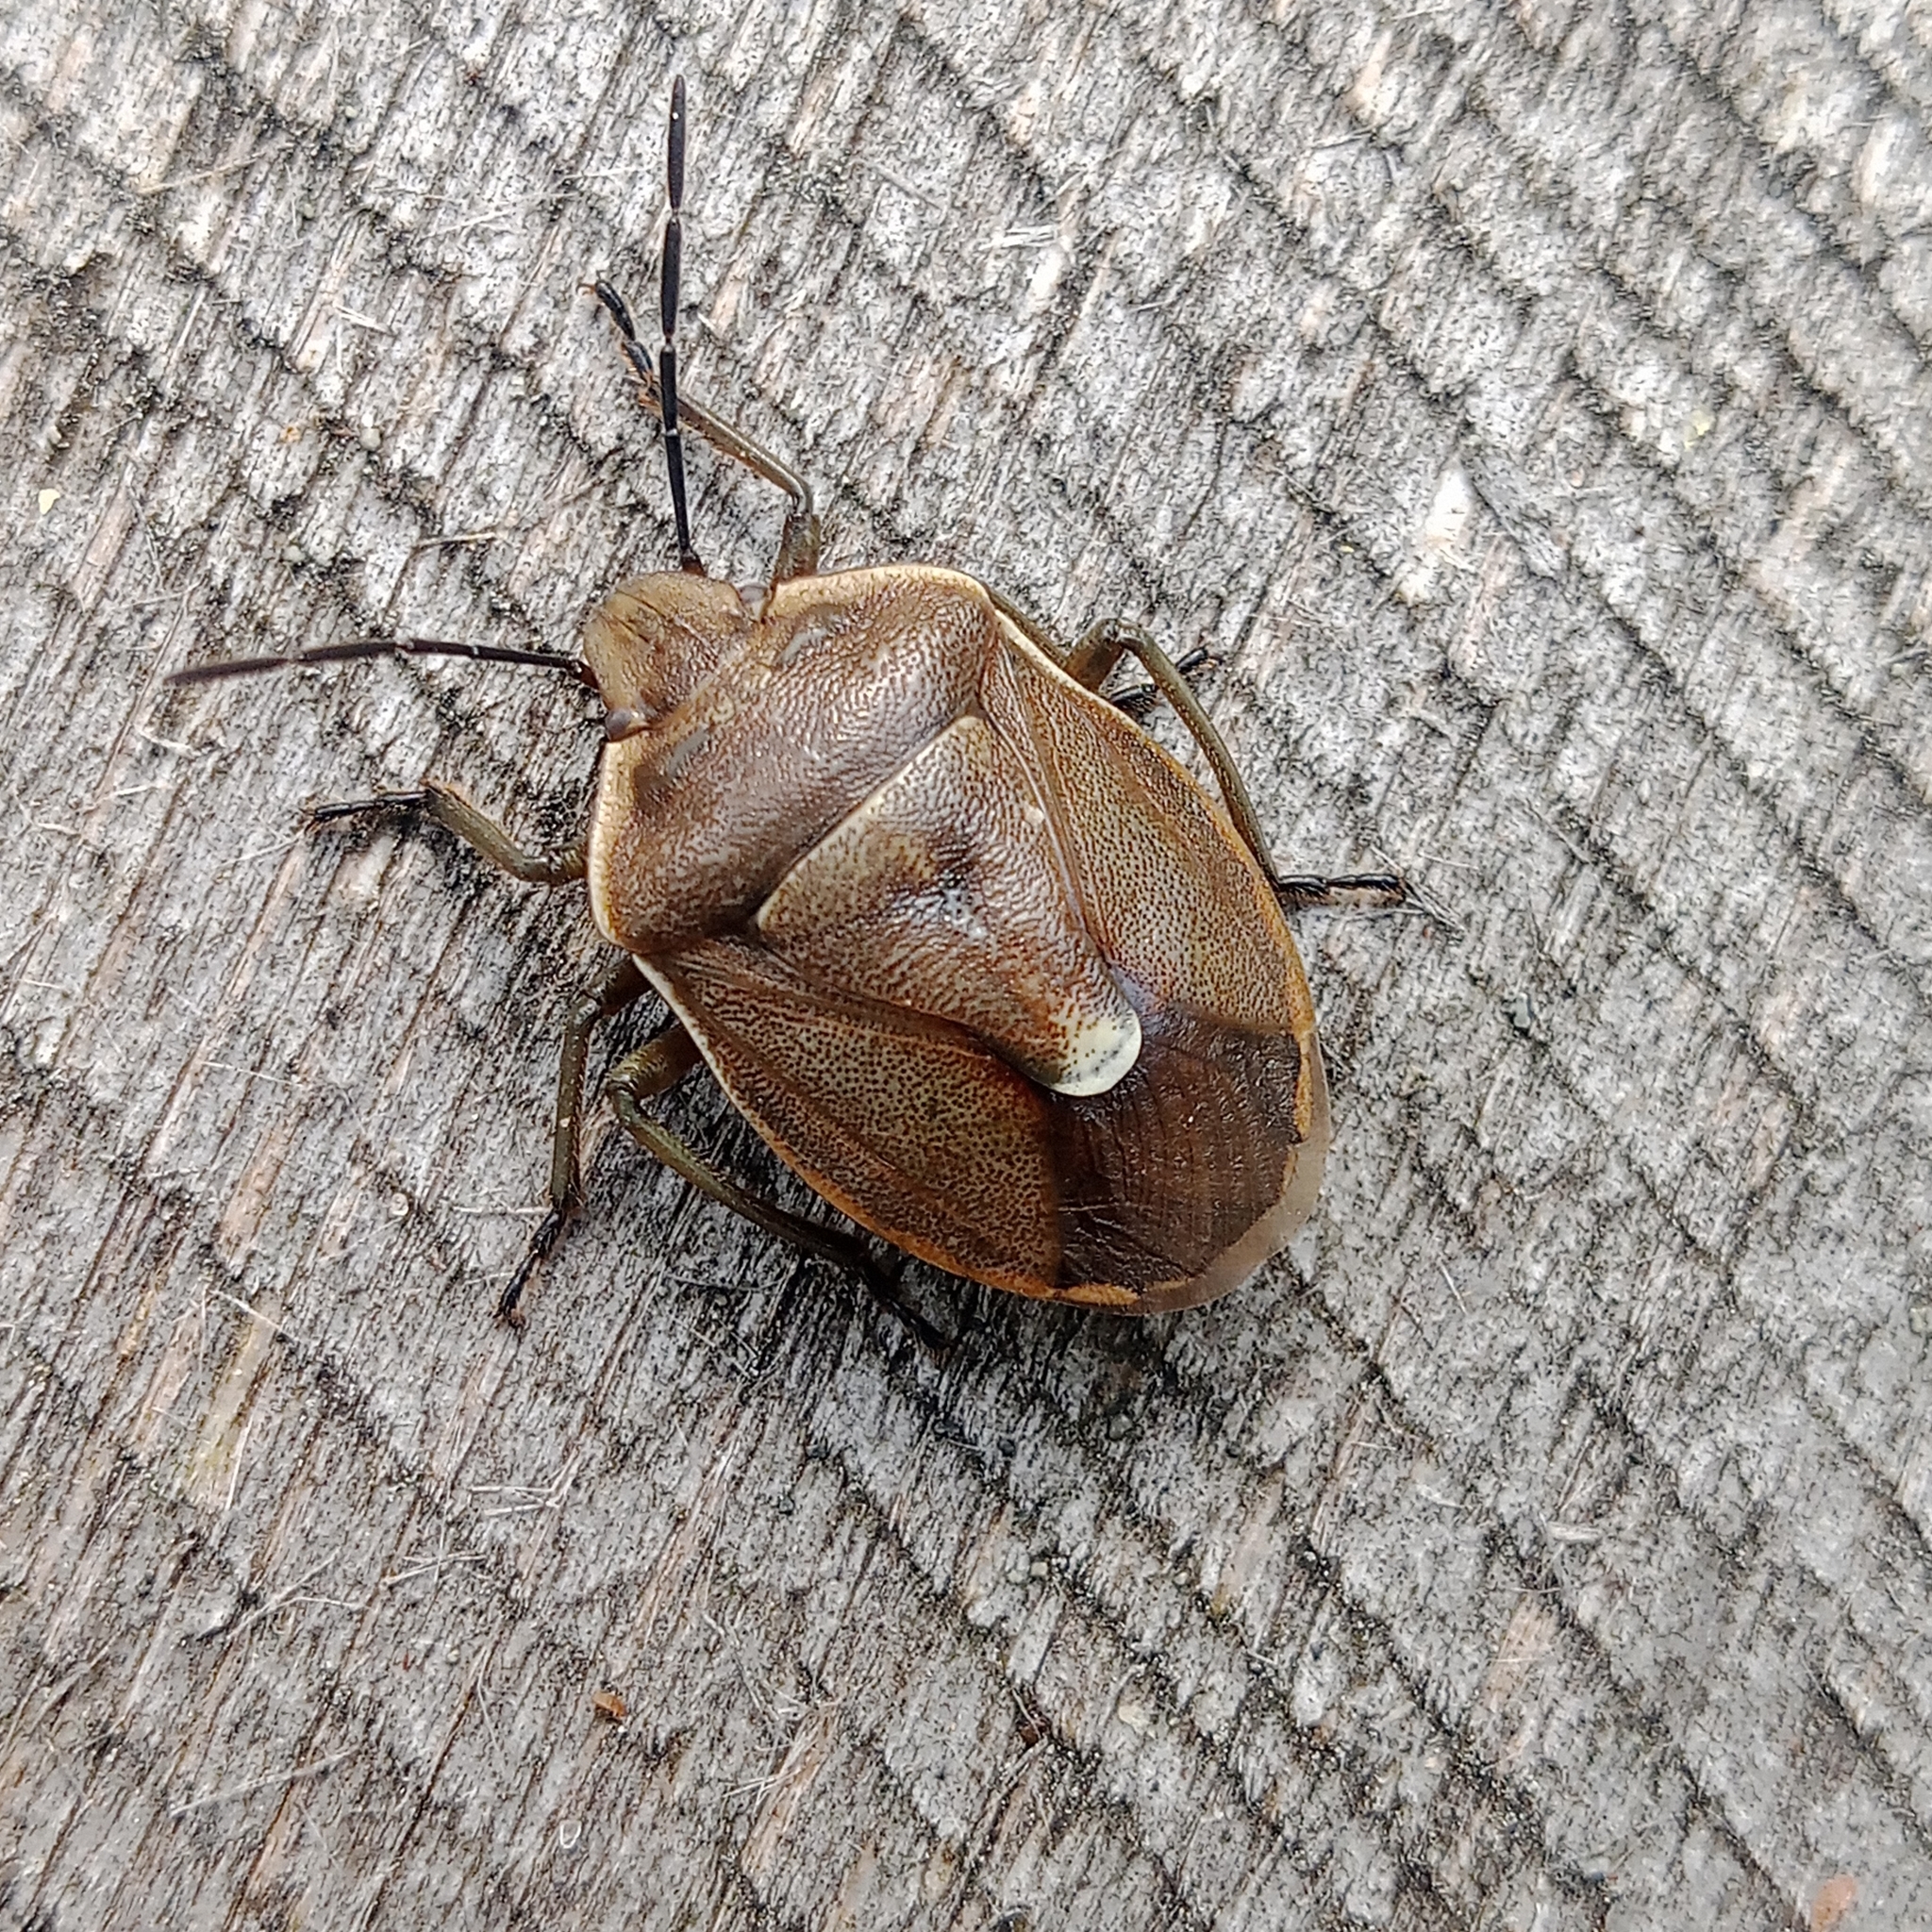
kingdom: Animalia
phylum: Arthropoda
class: Insecta
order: Hemiptera
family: Pentatomidae
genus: Chlorochroa
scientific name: Chlorochroa pinicola
